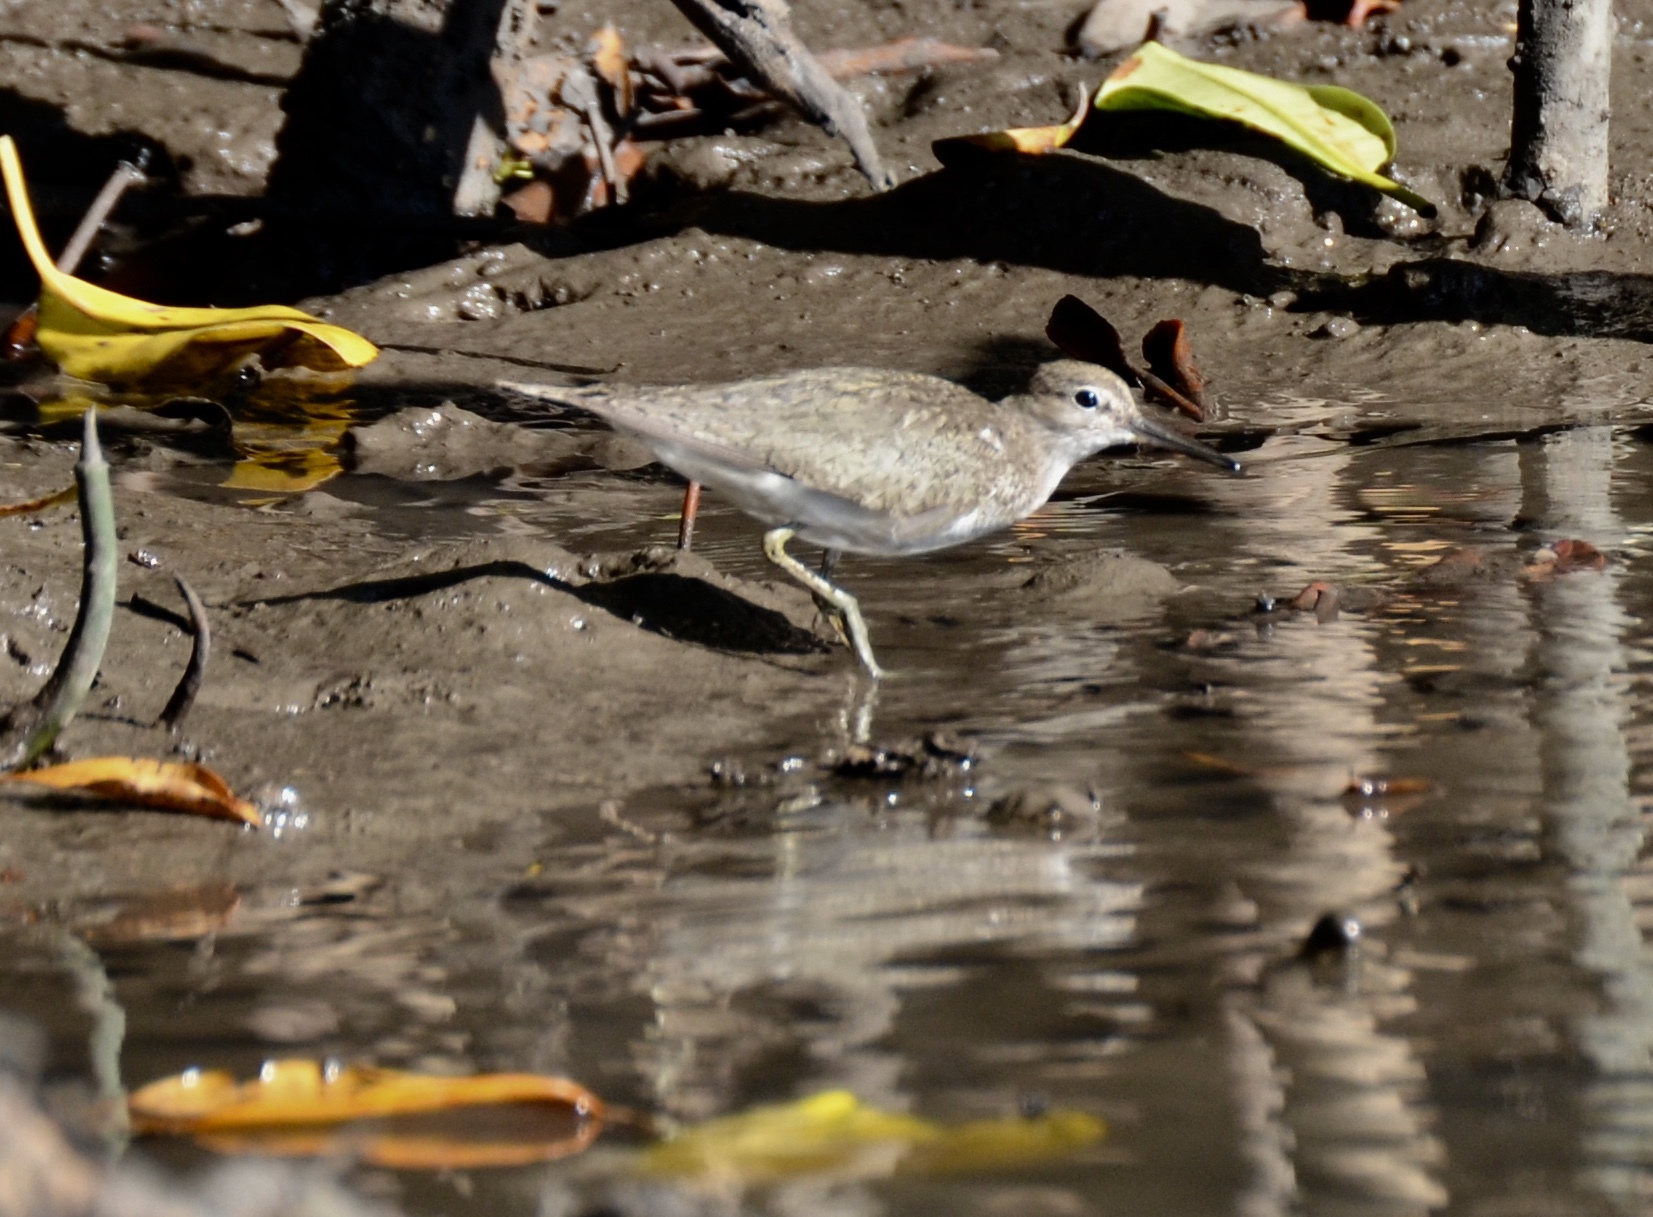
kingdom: Animalia
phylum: Chordata
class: Aves
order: Charadriiformes
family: Scolopacidae
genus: Actitis
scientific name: Actitis hypoleucos
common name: Common sandpiper
